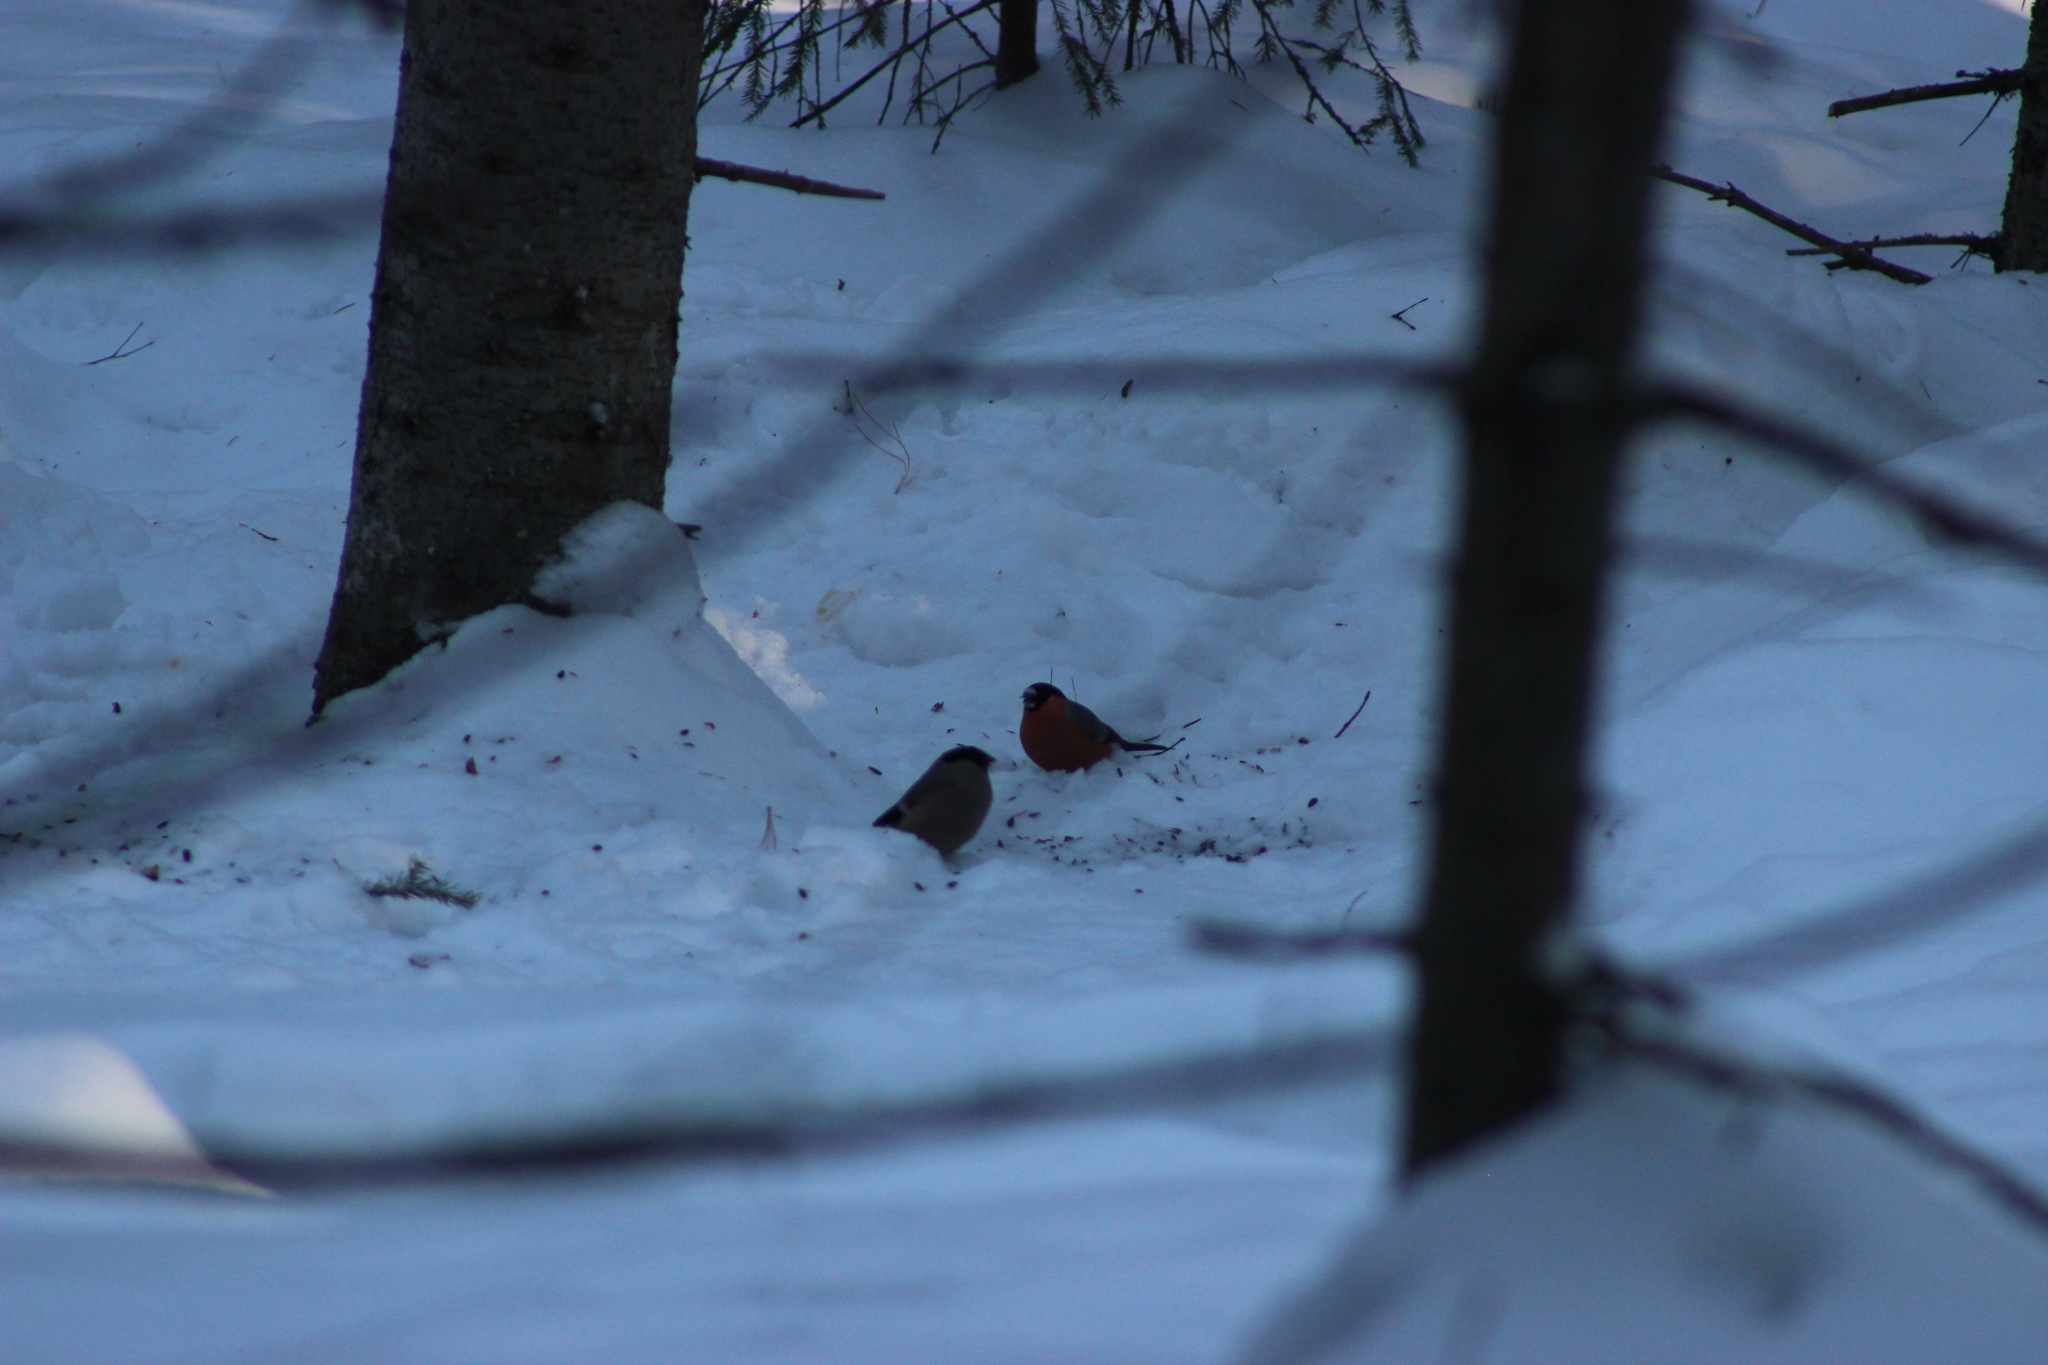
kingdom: Animalia
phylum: Chordata
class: Aves
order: Passeriformes
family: Fringillidae
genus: Pyrrhula
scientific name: Pyrrhula pyrrhula
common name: Eurasian bullfinch
